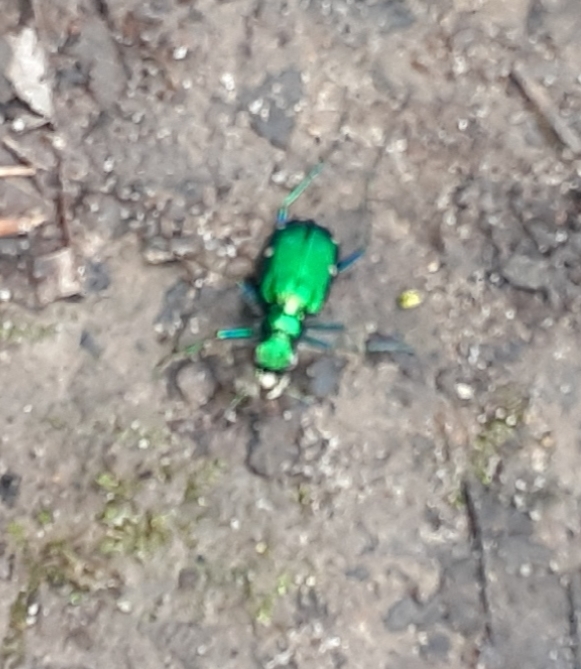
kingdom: Animalia
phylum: Arthropoda
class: Insecta
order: Coleoptera
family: Carabidae
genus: Cicindela
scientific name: Cicindela sexguttata
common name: Six-spotted tiger beetle
